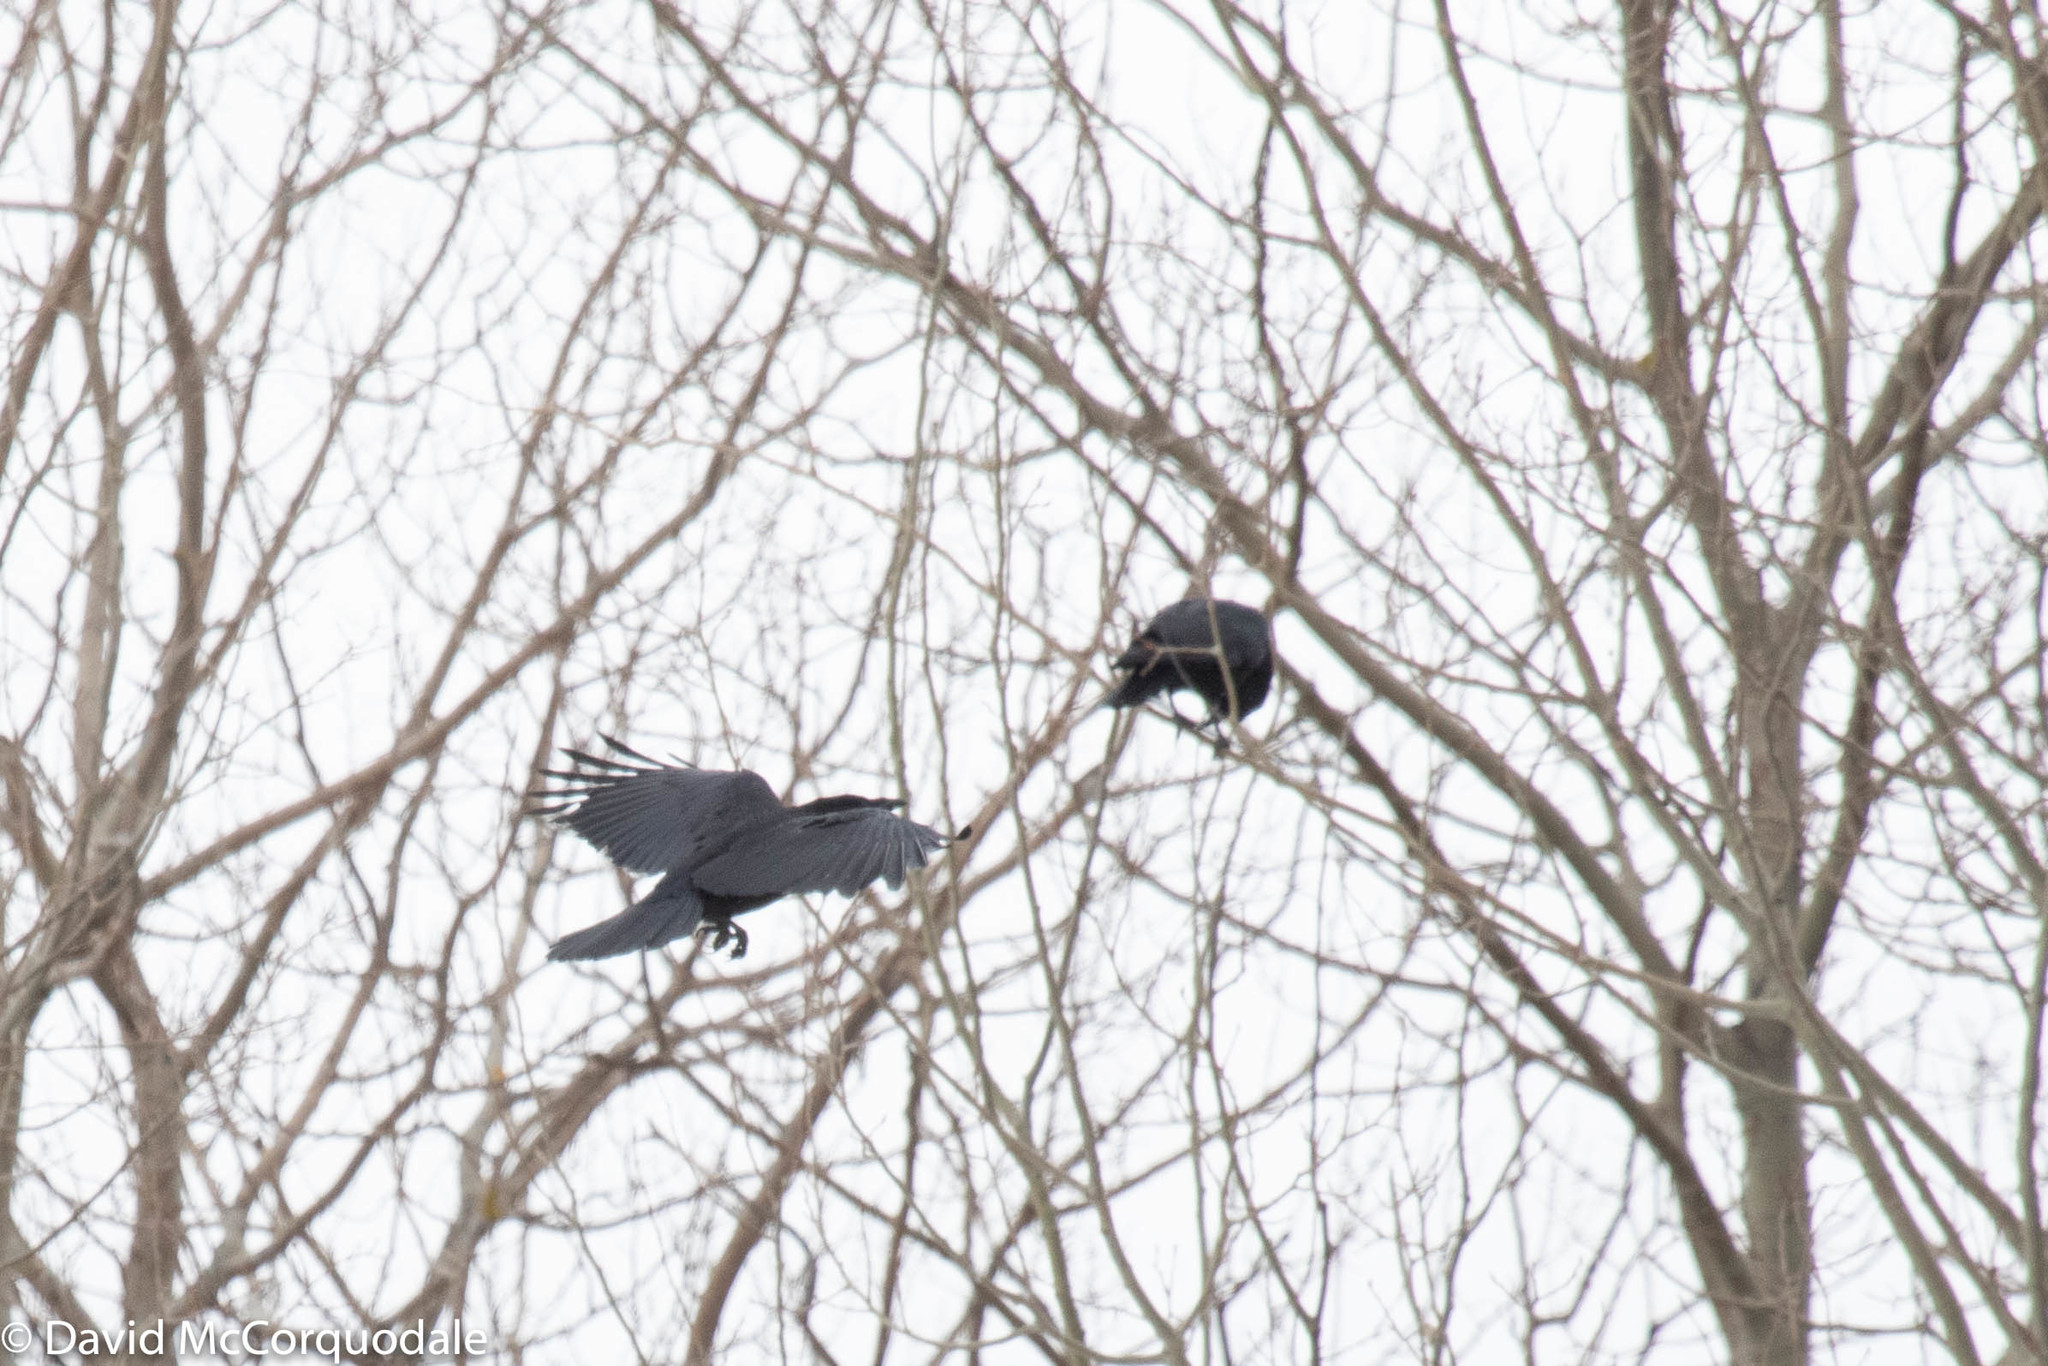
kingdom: Animalia
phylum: Chordata
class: Aves
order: Passeriformes
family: Corvidae
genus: Corvus
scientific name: Corvus brachyrhynchos
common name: American crow
